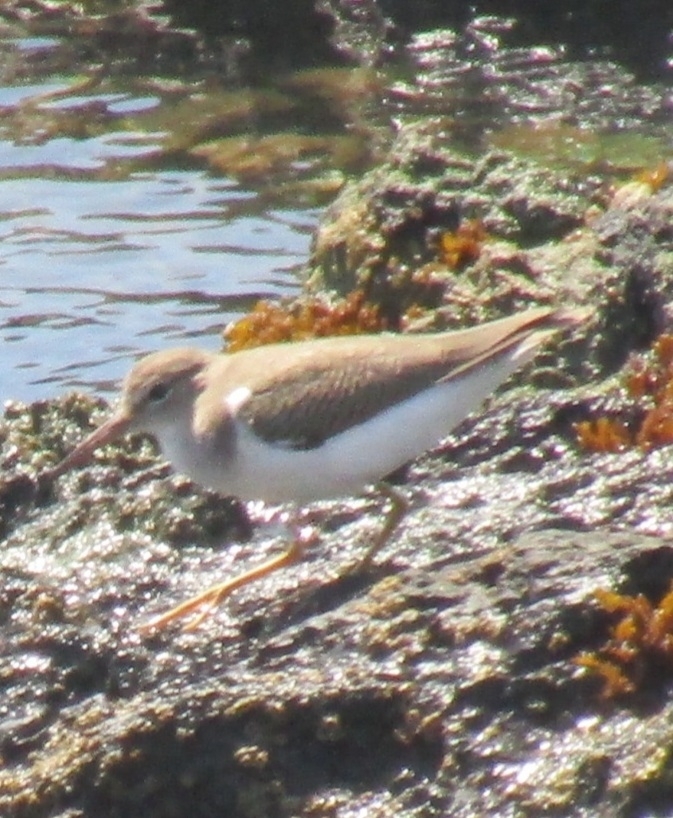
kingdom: Animalia
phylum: Chordata
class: Aves
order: Charadriiformes
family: Scolopacidae
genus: Actitis
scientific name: Actitis macularius
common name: Spotted sandpiper
